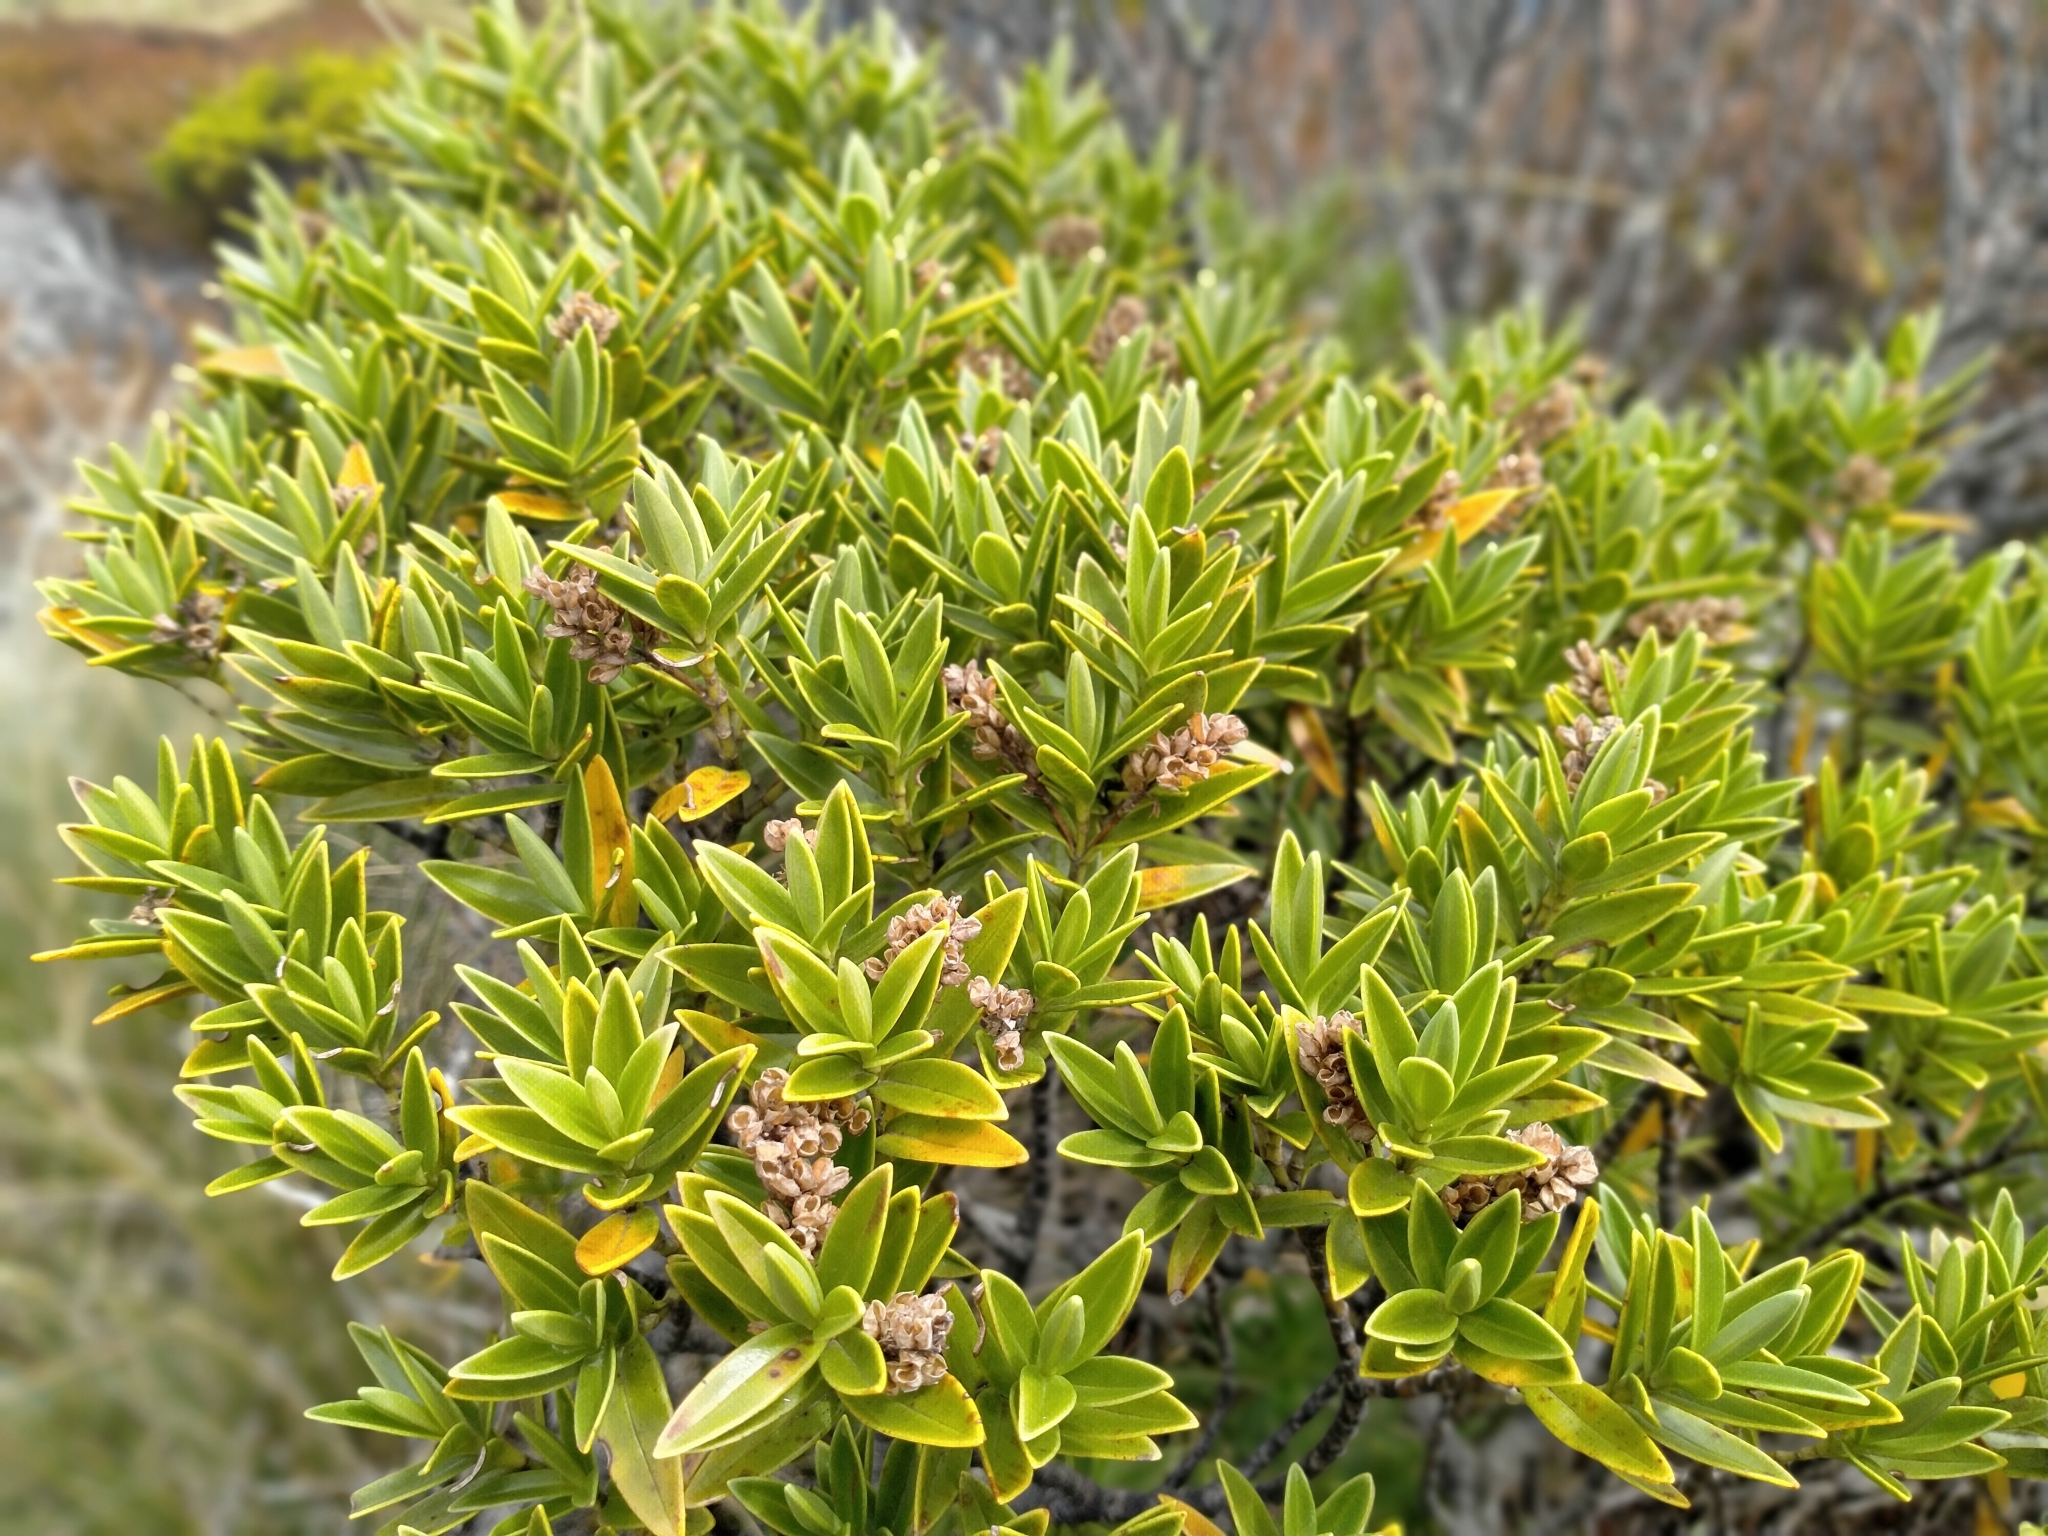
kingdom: Plantae
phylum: Tracheophyta
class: Magnoliopsida
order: Lamiales
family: Plantaginaceae
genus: Veronica
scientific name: Veronica subalpina
